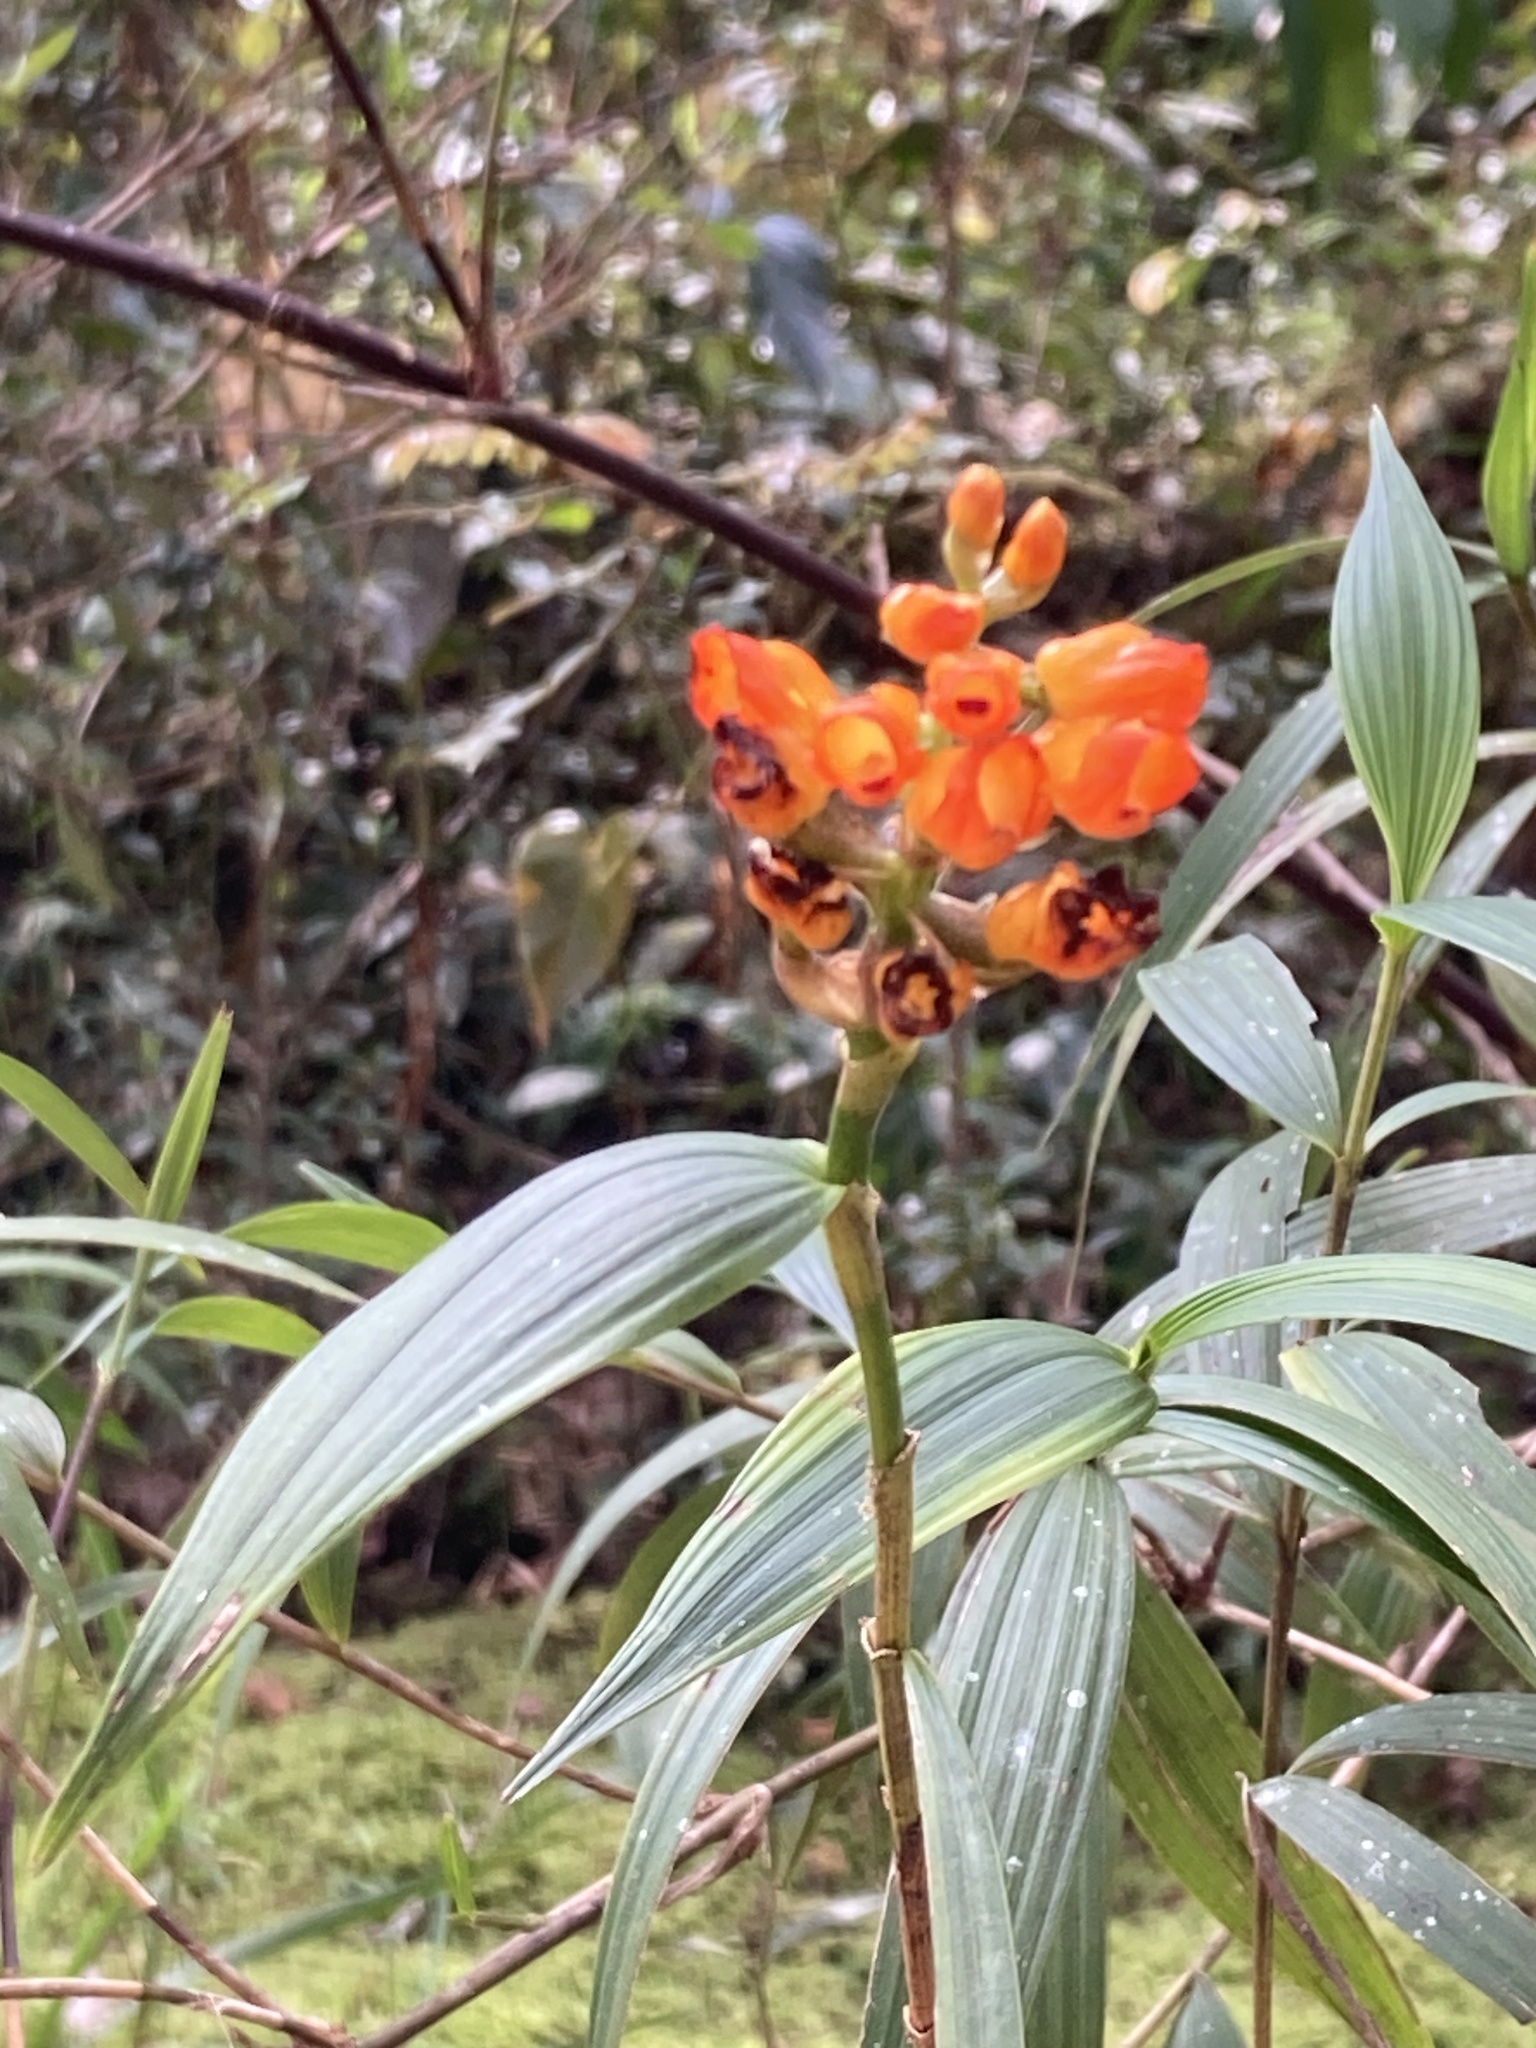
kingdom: Plantae
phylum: Tracheophyta
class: Liliopsida
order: Asparagales
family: Orchidaceae
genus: Elleanthus
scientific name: Elleanthus aurantiacus
